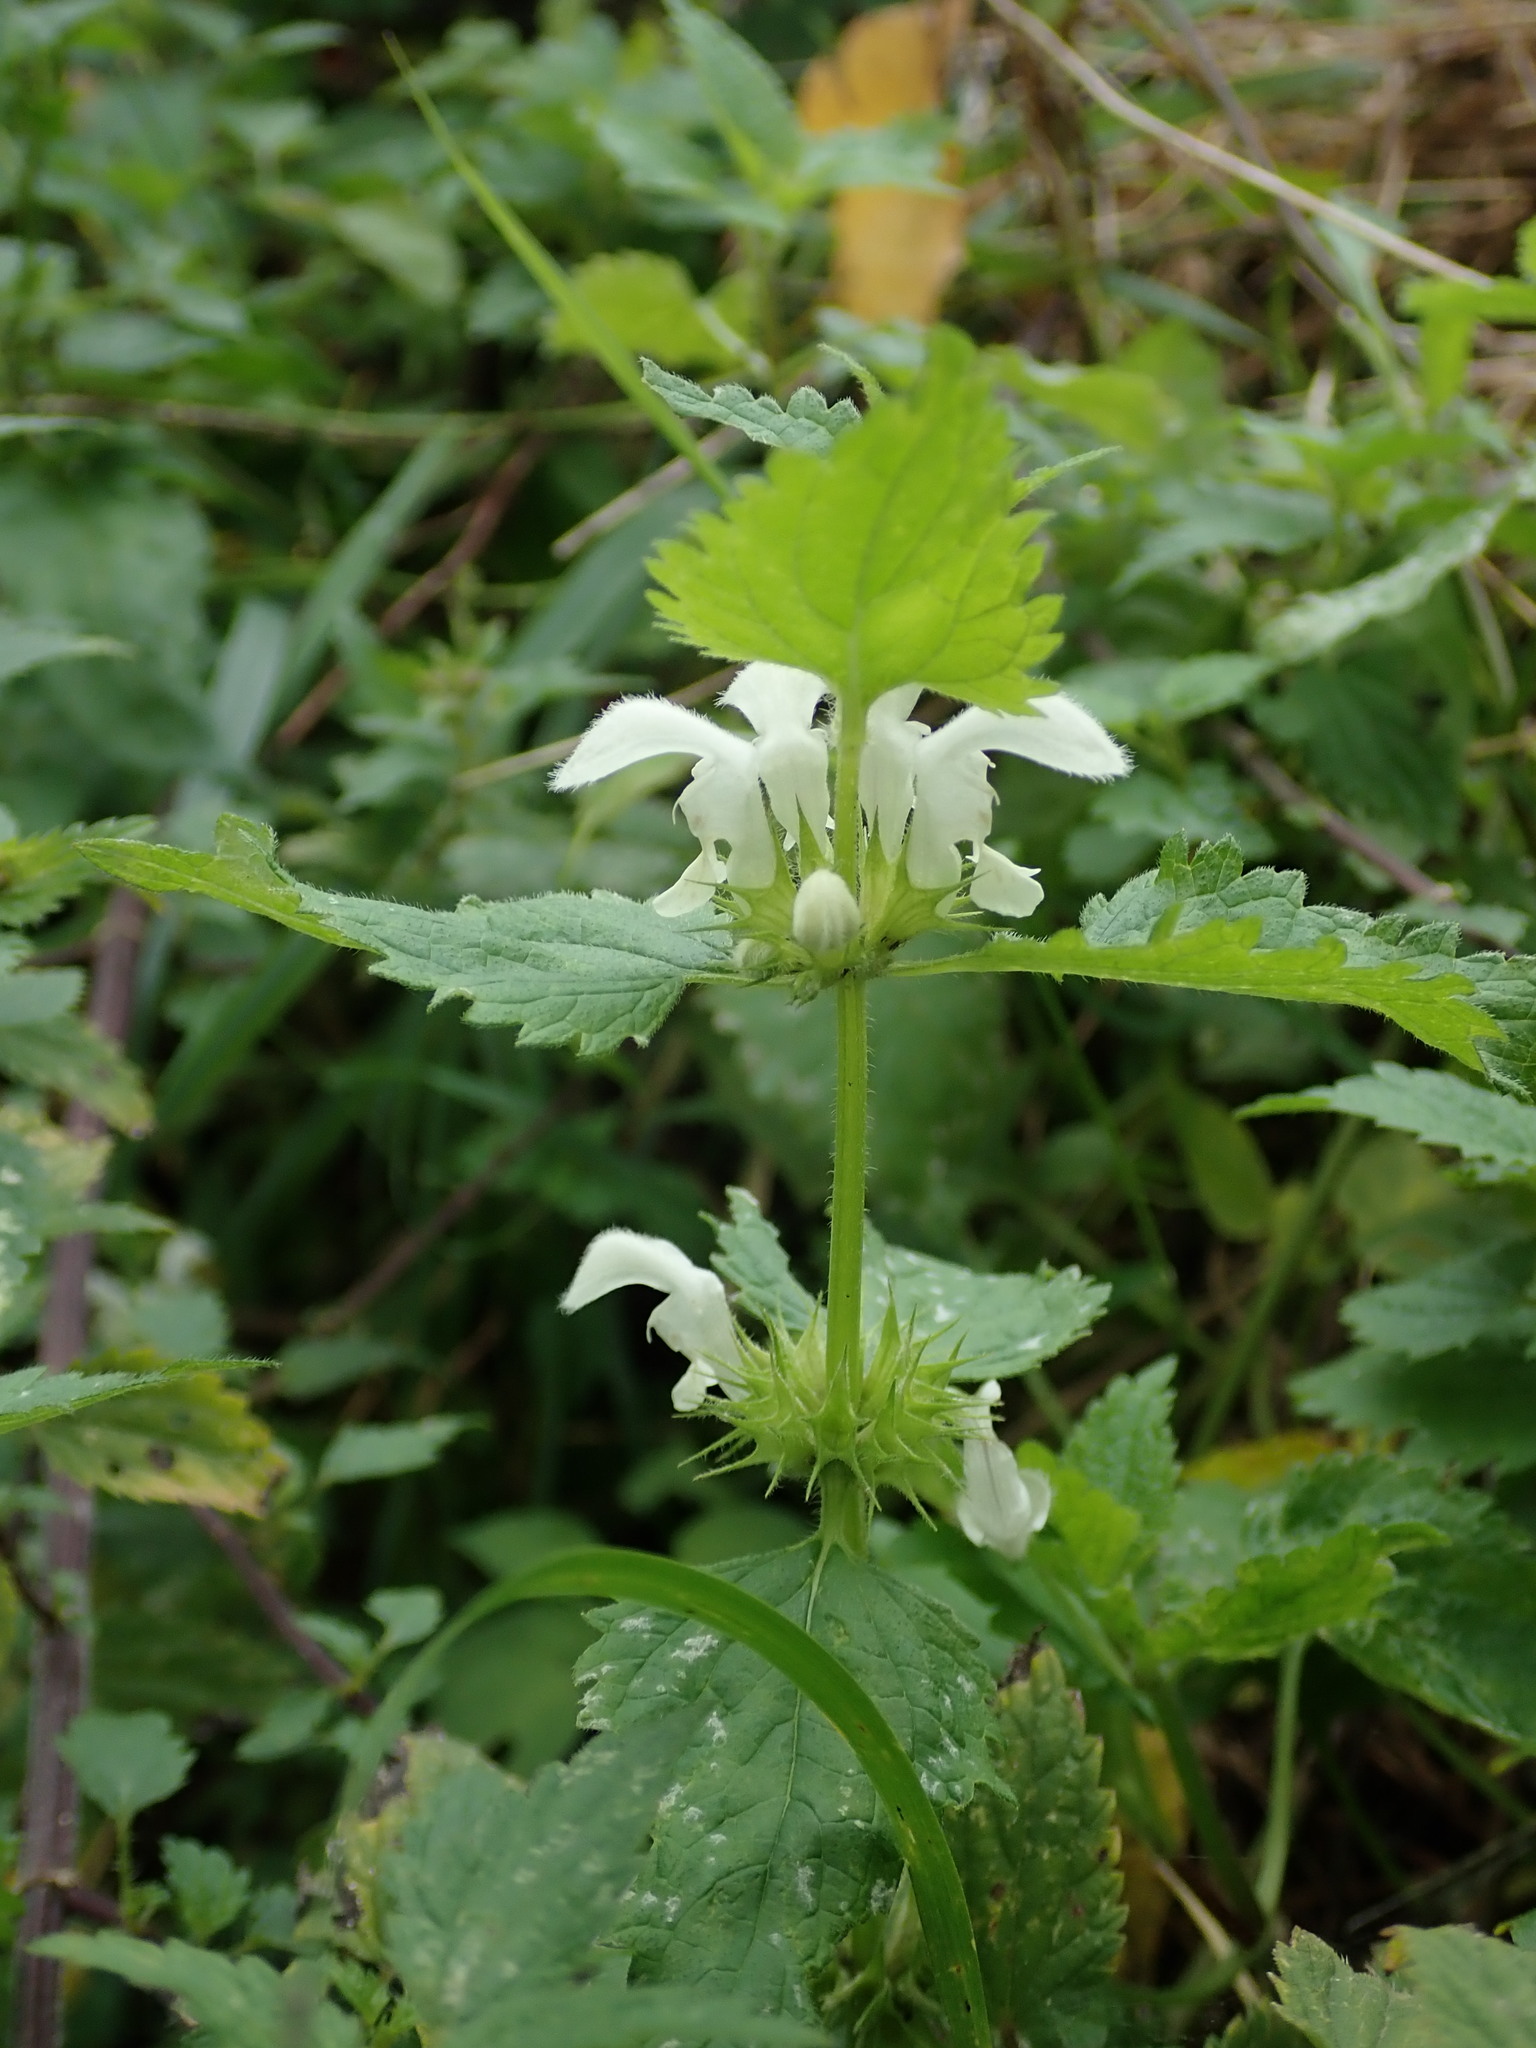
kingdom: Plantae
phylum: Tracheophyta
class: Magnoliopsida
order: Lamiales
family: Lamiaceae
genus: Lamium
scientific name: Lamium album
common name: White dead-nettle
